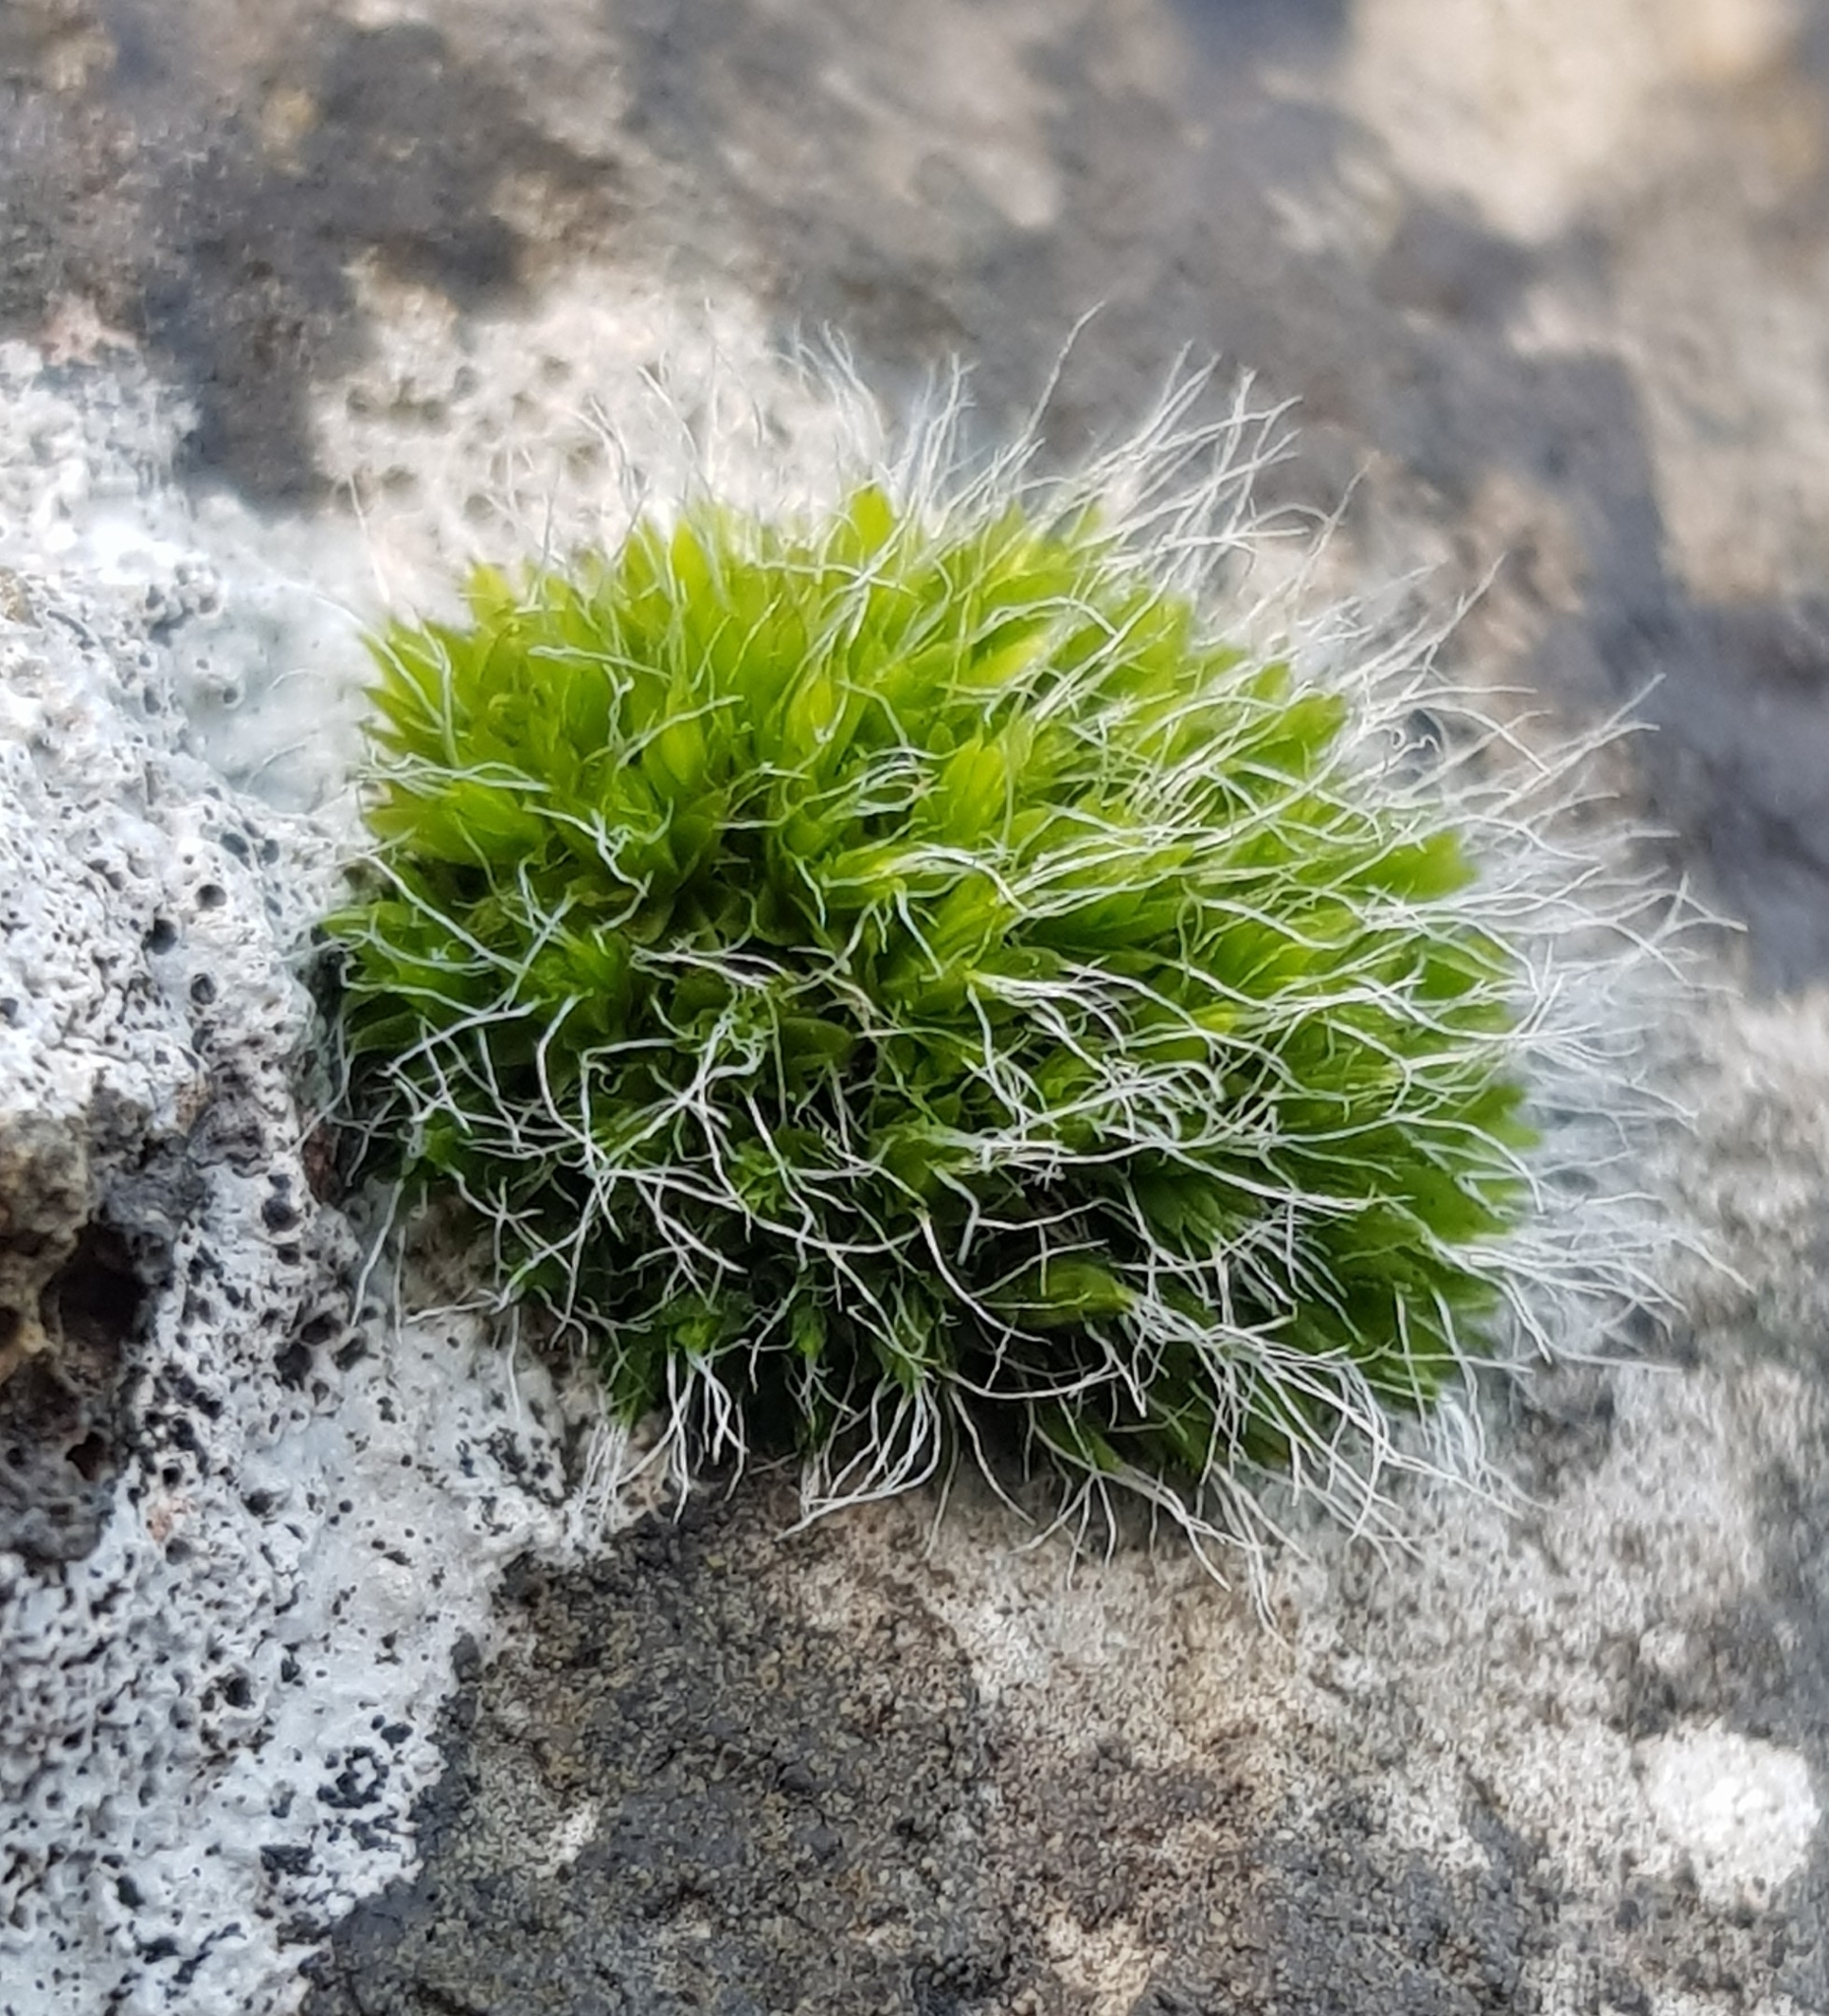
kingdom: Plantae
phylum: Bryophyta
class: Bryopsida
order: Grimmiales
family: Grimmiaceae
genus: Grimmia
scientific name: Grimmia pulvinata
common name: Grey-cushioned grimmia
